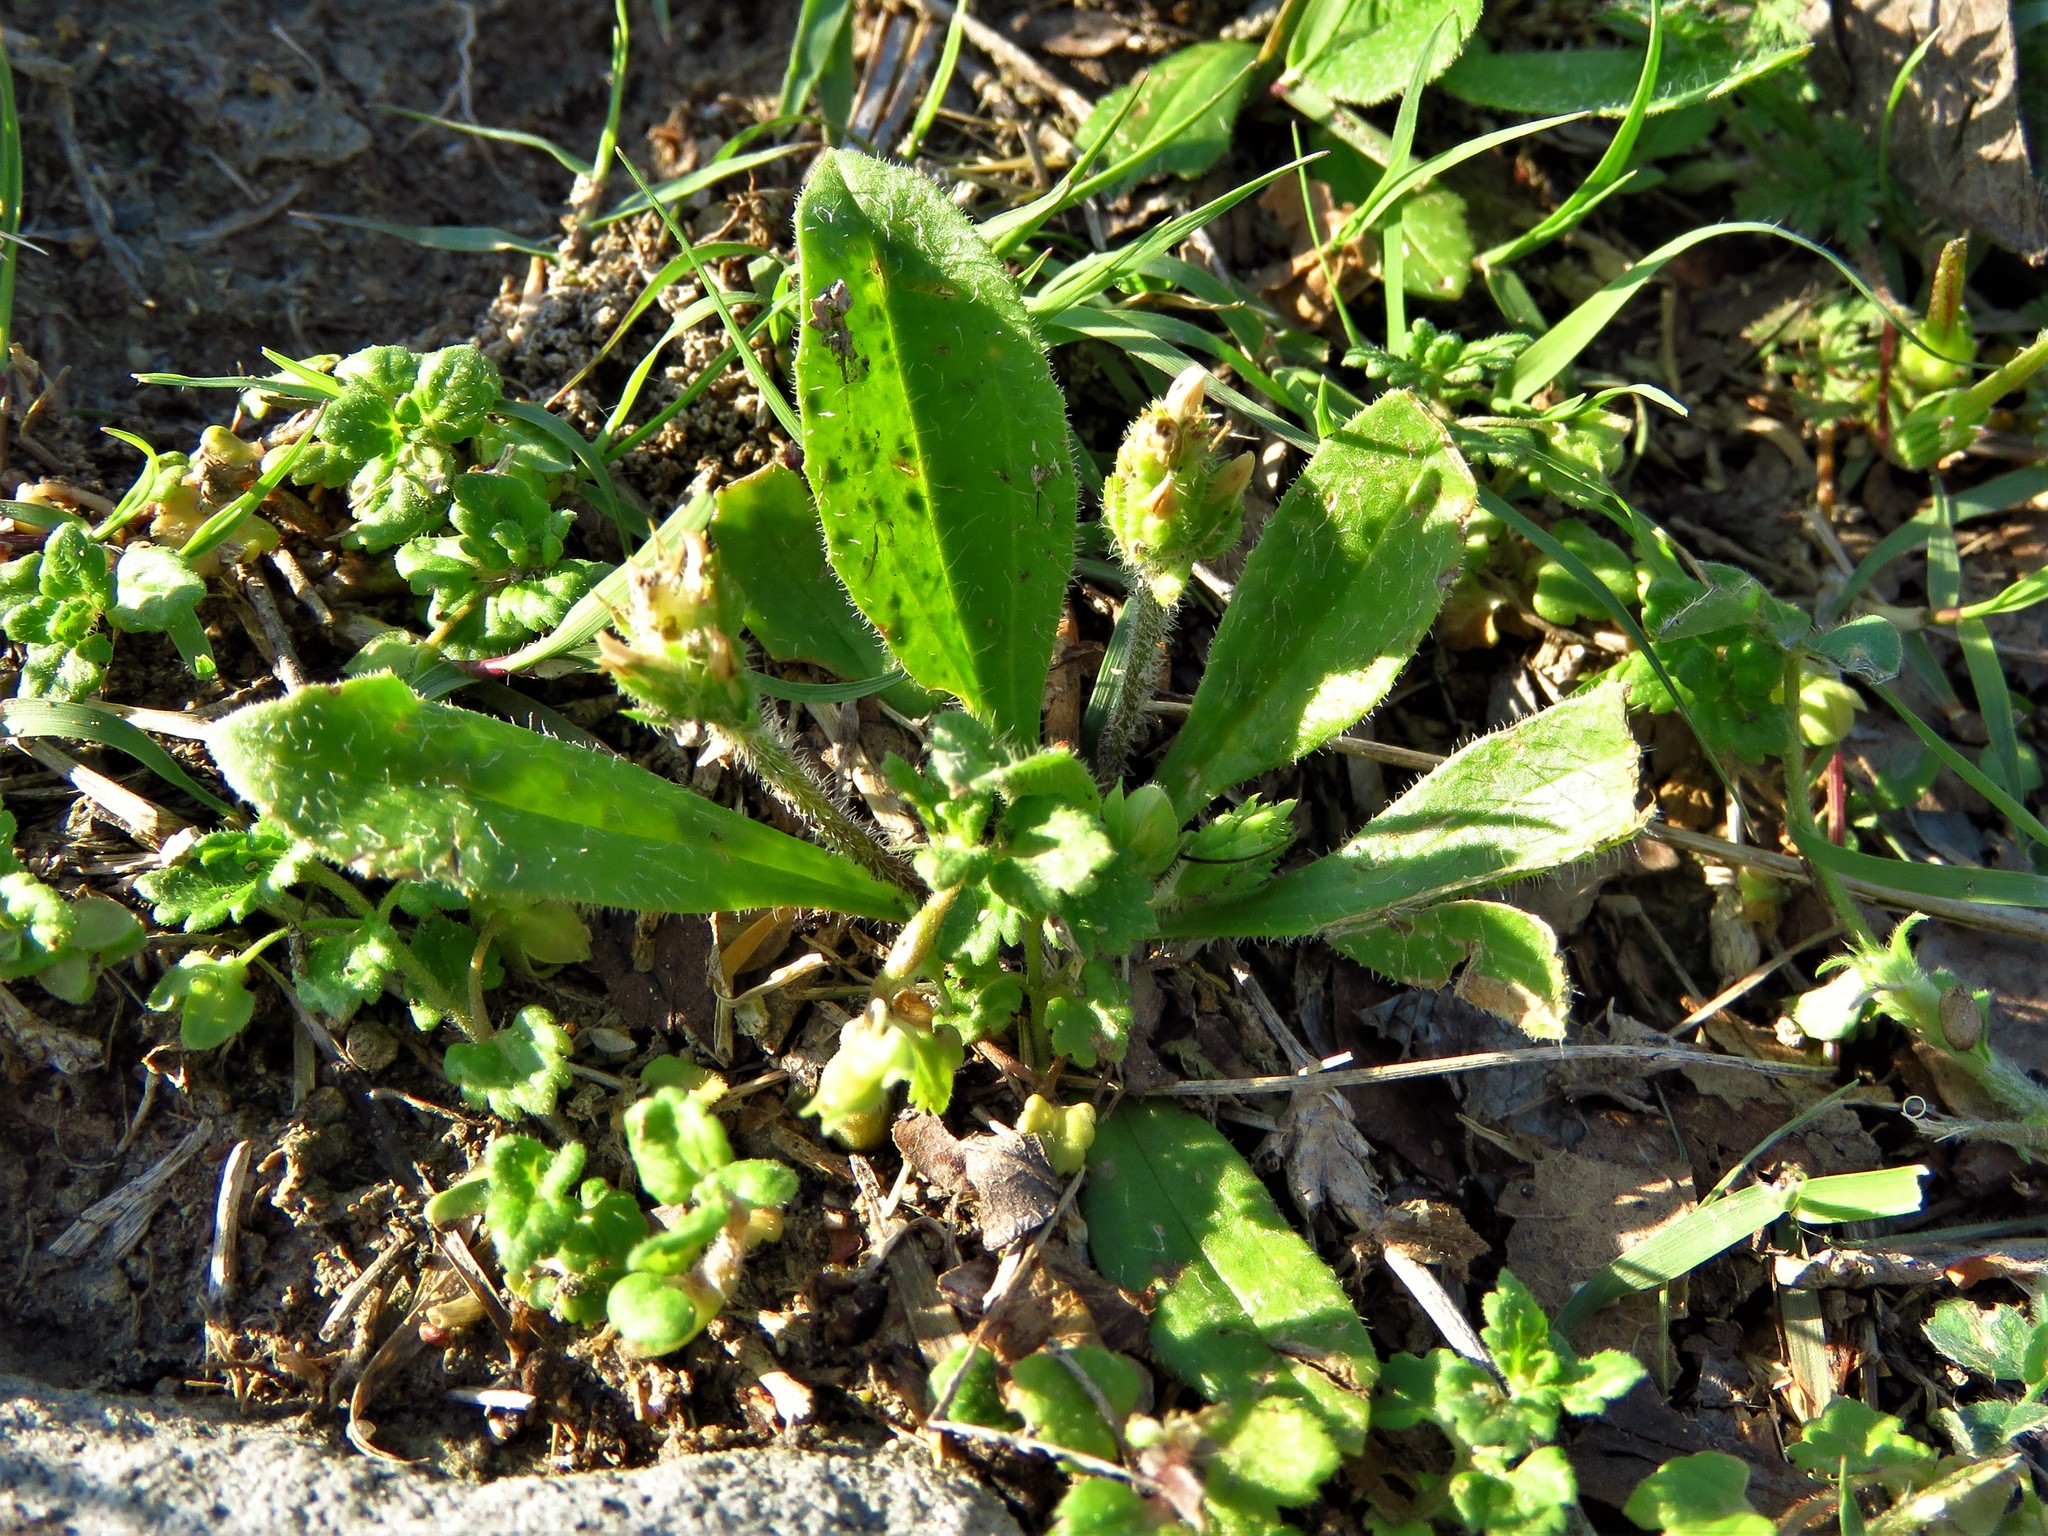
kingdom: Plantae
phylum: Tracheophyta
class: Magnoliopsida
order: Lamiales
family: Plantaginaceae
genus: Plantago
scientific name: Plantago virginica
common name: Hoary plantain
